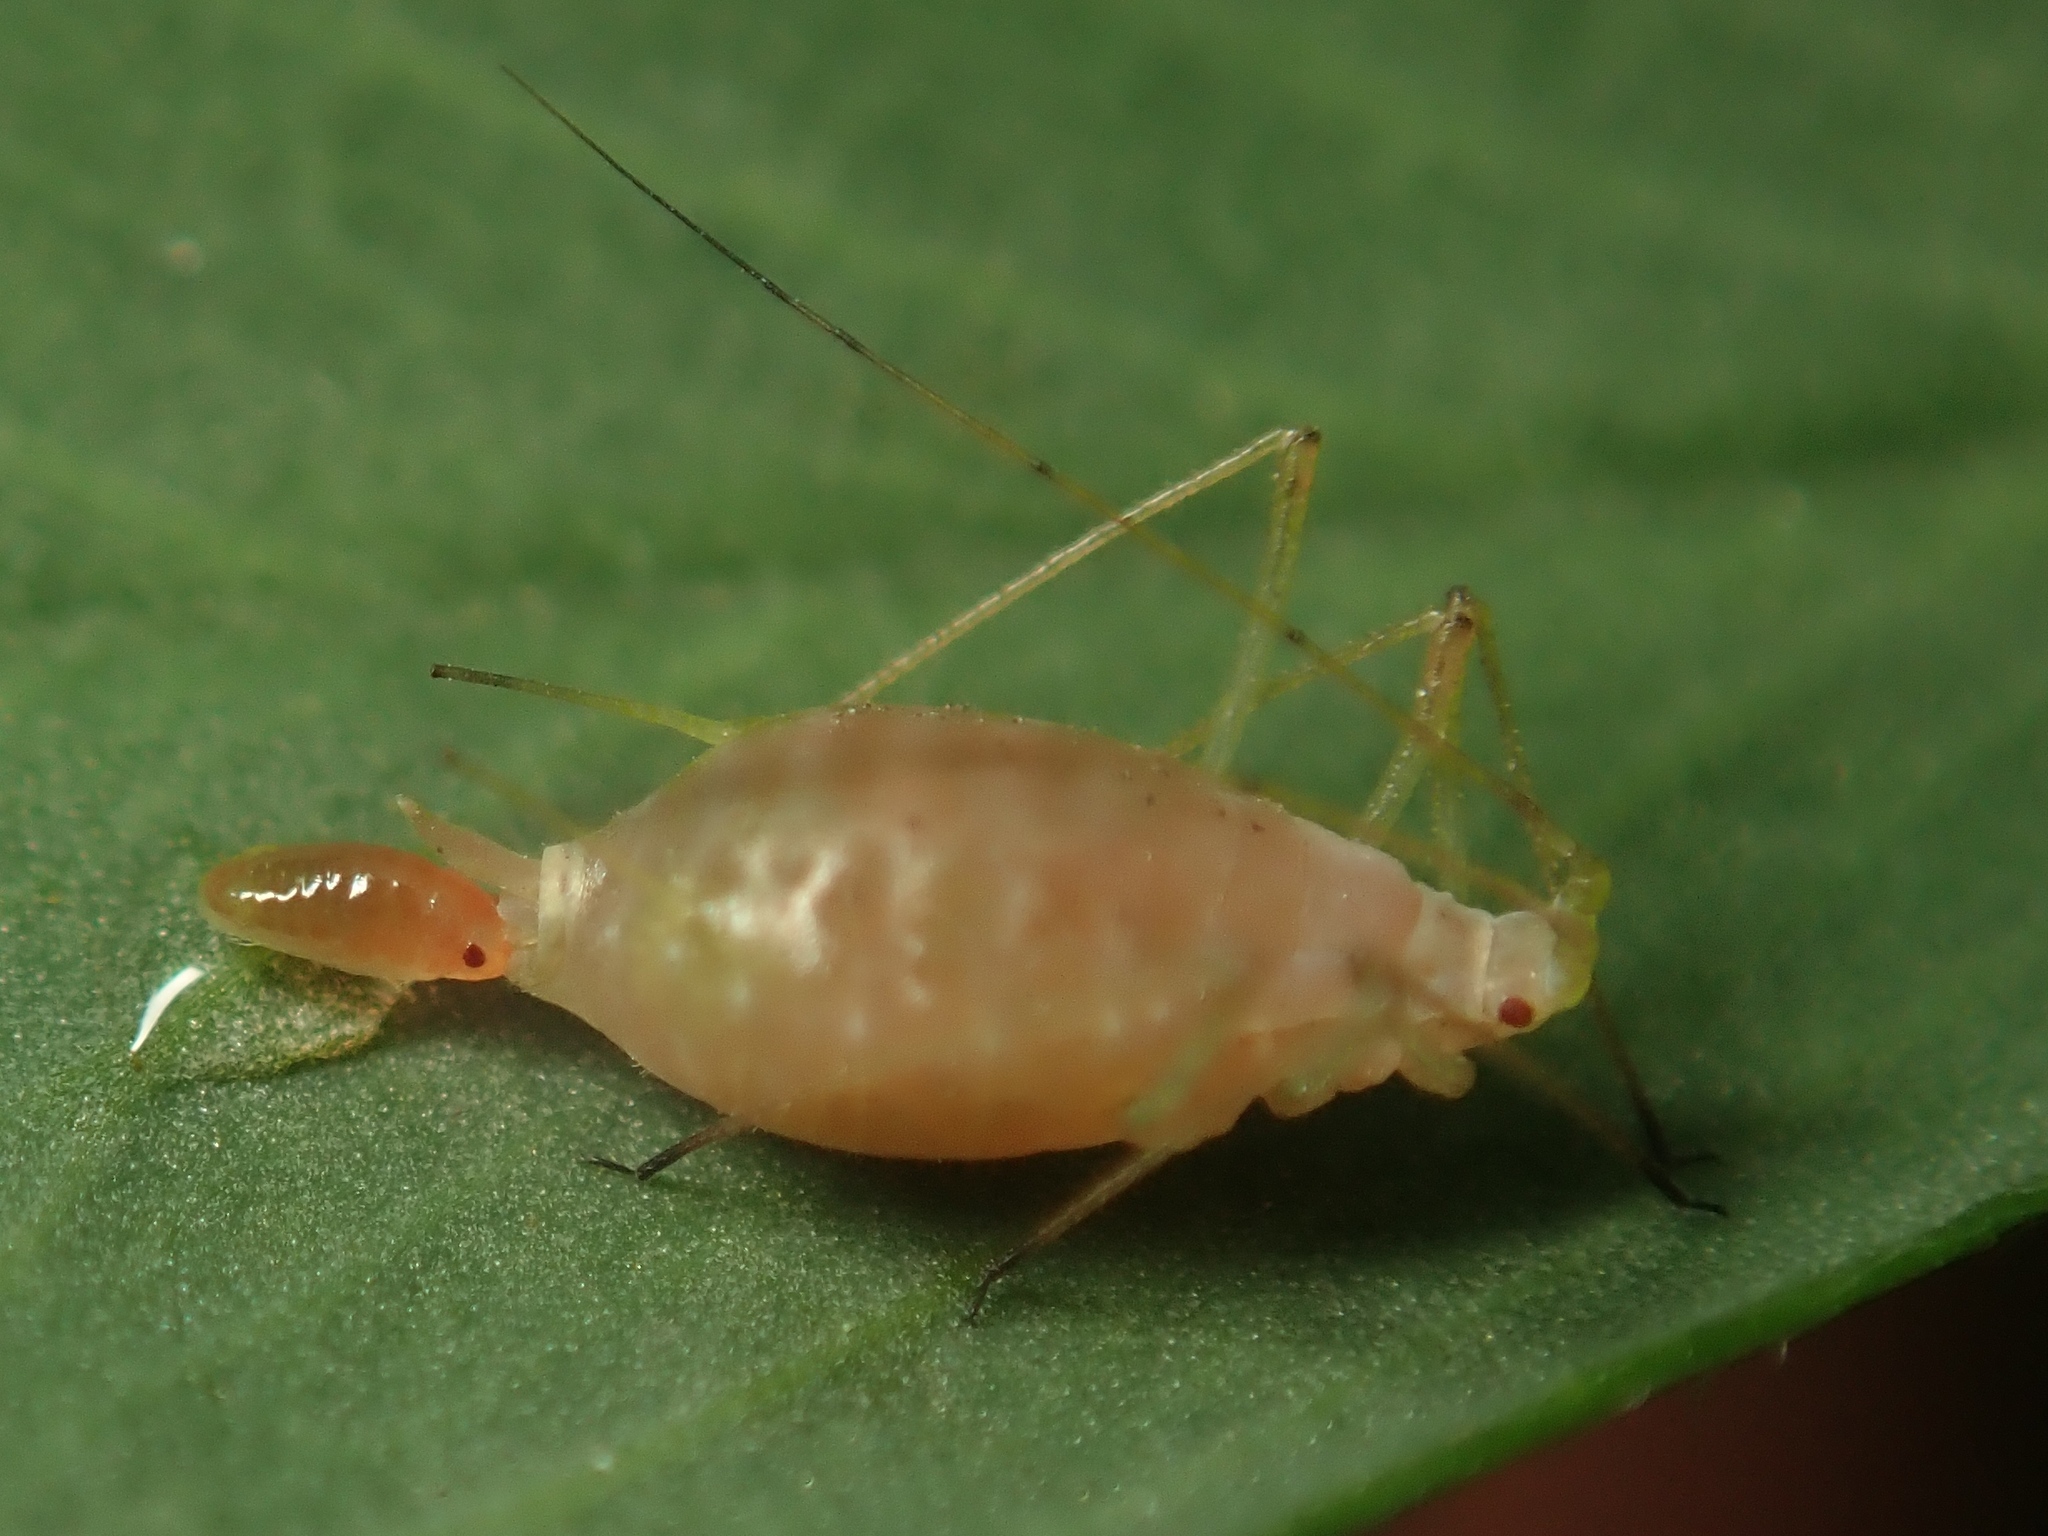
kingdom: Animalia
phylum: Arthropoda
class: Insecta
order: Hemiptera
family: Aphididae
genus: Acyrthosiphon
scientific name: Acyrthosiphon pisum
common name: Pea aphid
